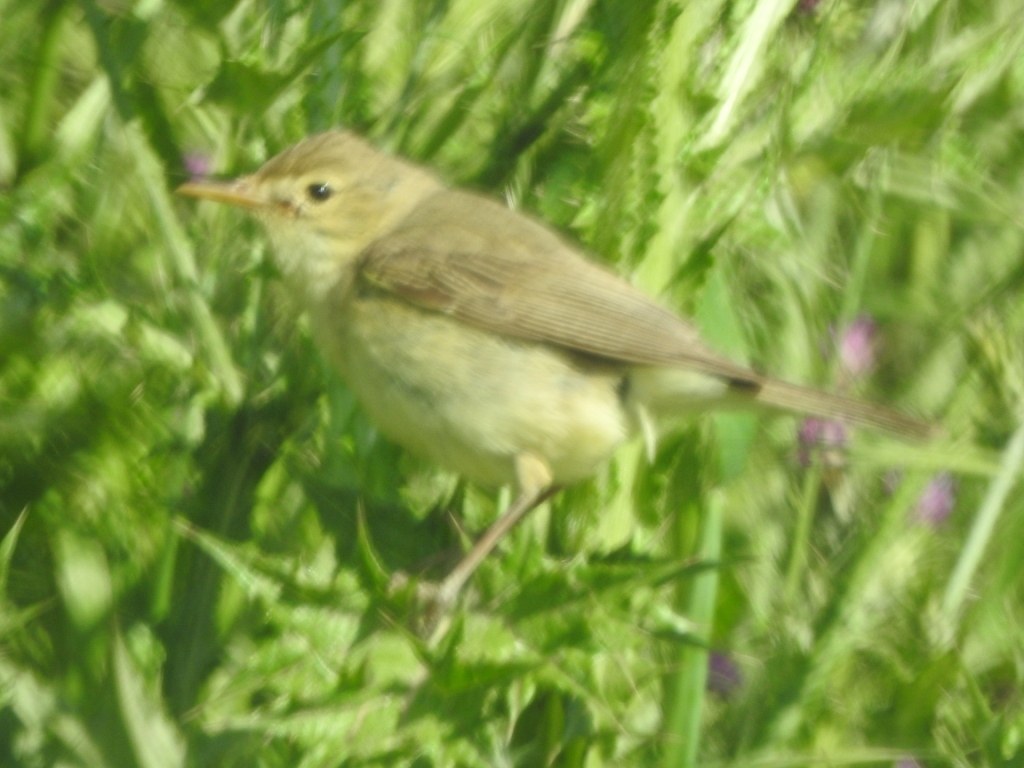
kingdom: Animalia
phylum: Chordata
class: Aves
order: Passeriformes
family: Acrocephalidae
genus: Hippolais
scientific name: Hippolais polyglotta
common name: Melodious warbler
